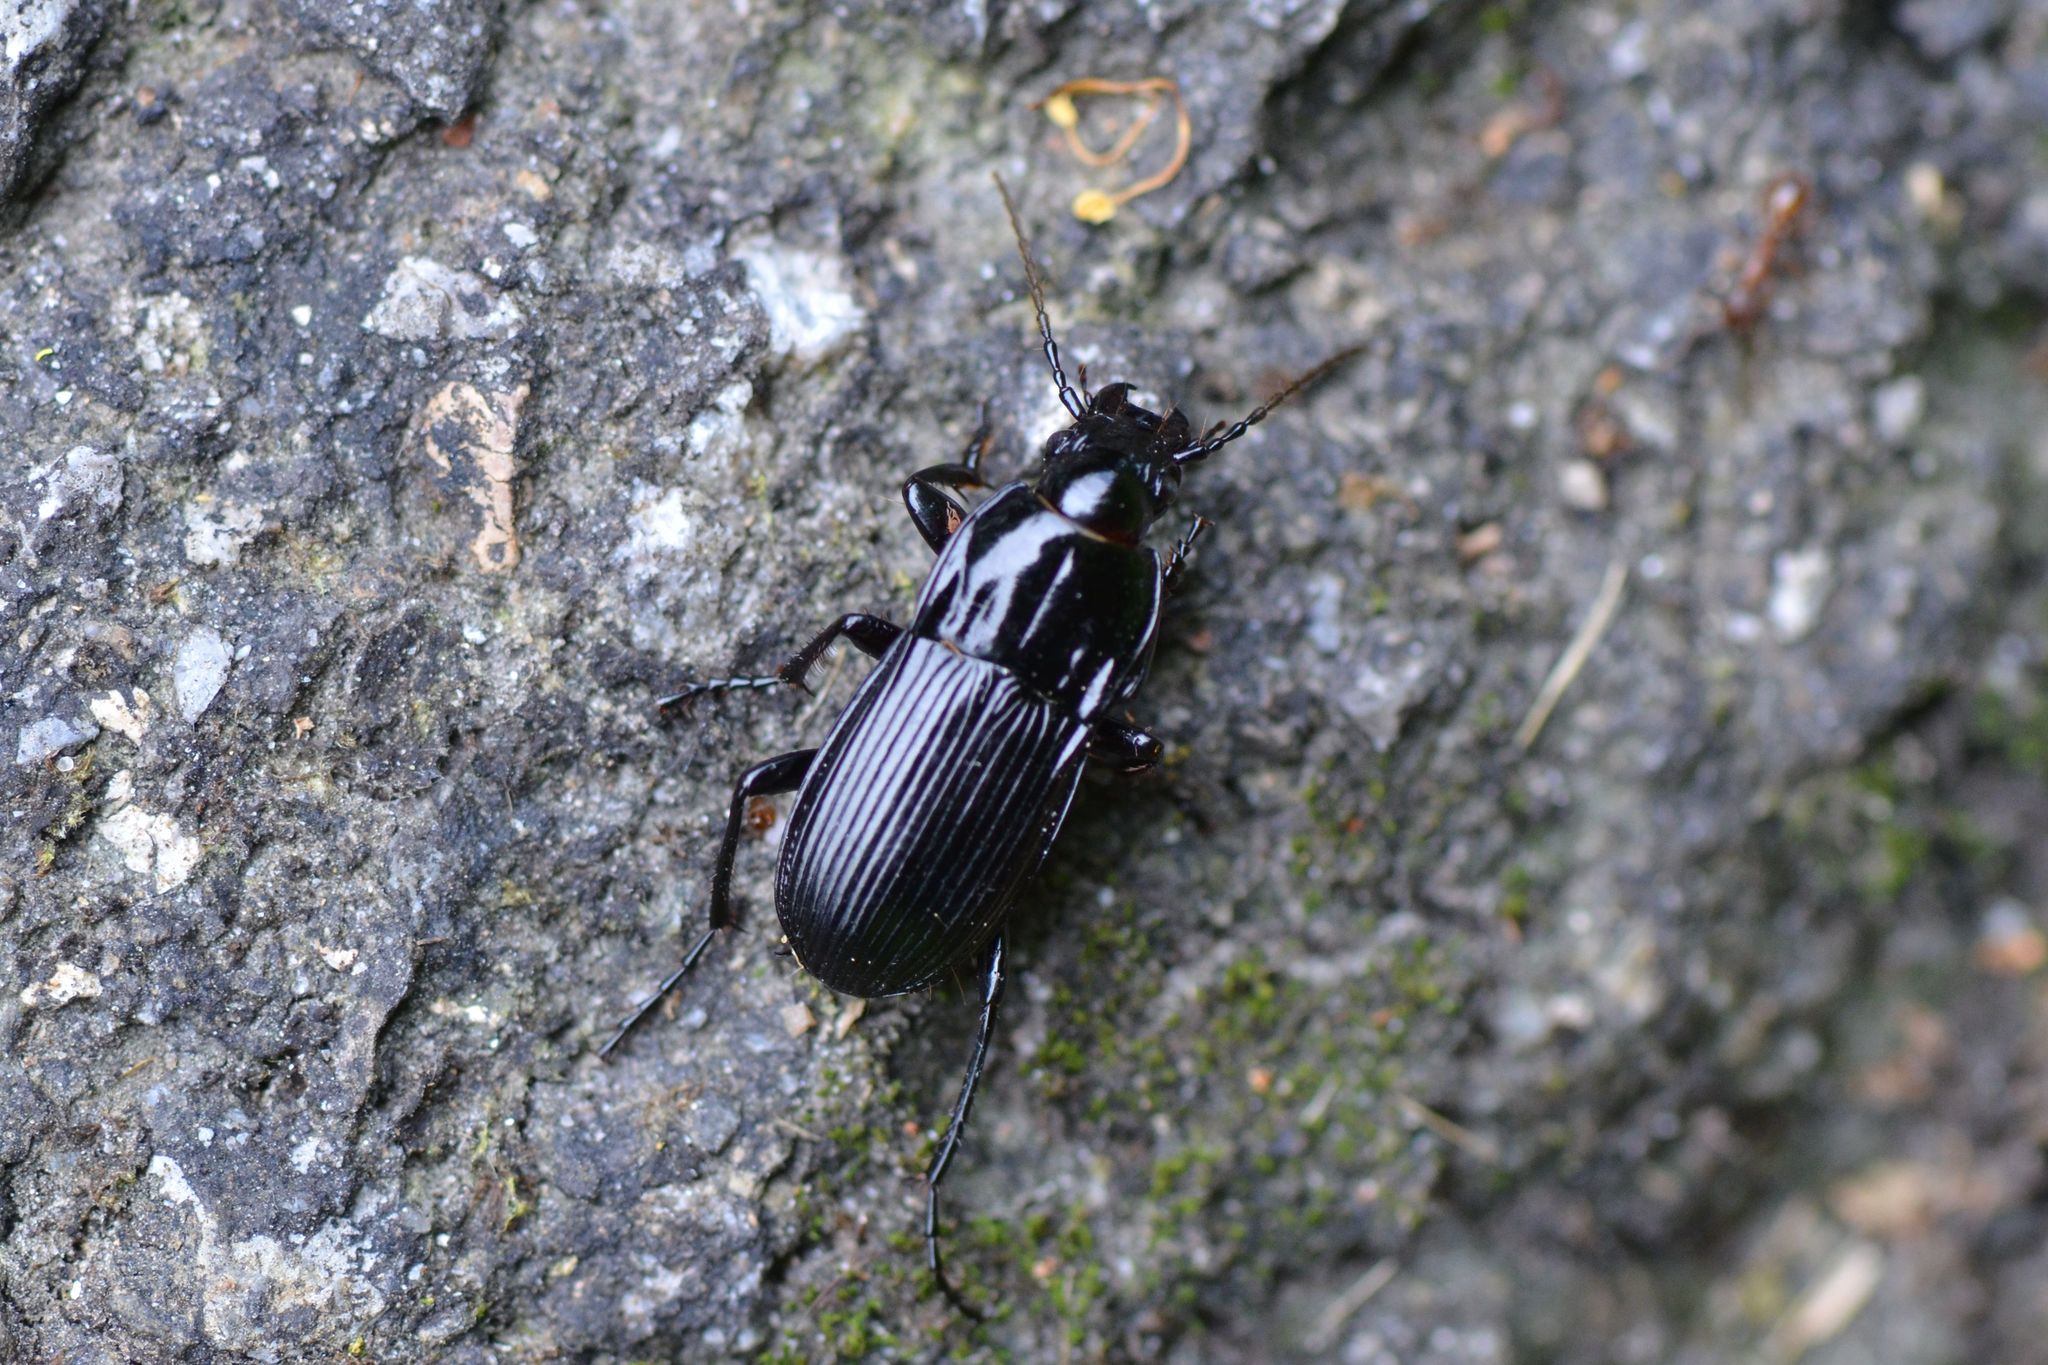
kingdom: Animalia
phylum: Arthropoda
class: Insecta
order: Coleoptera
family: Carabidae
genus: Abax
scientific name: Abax parallelepipedus
